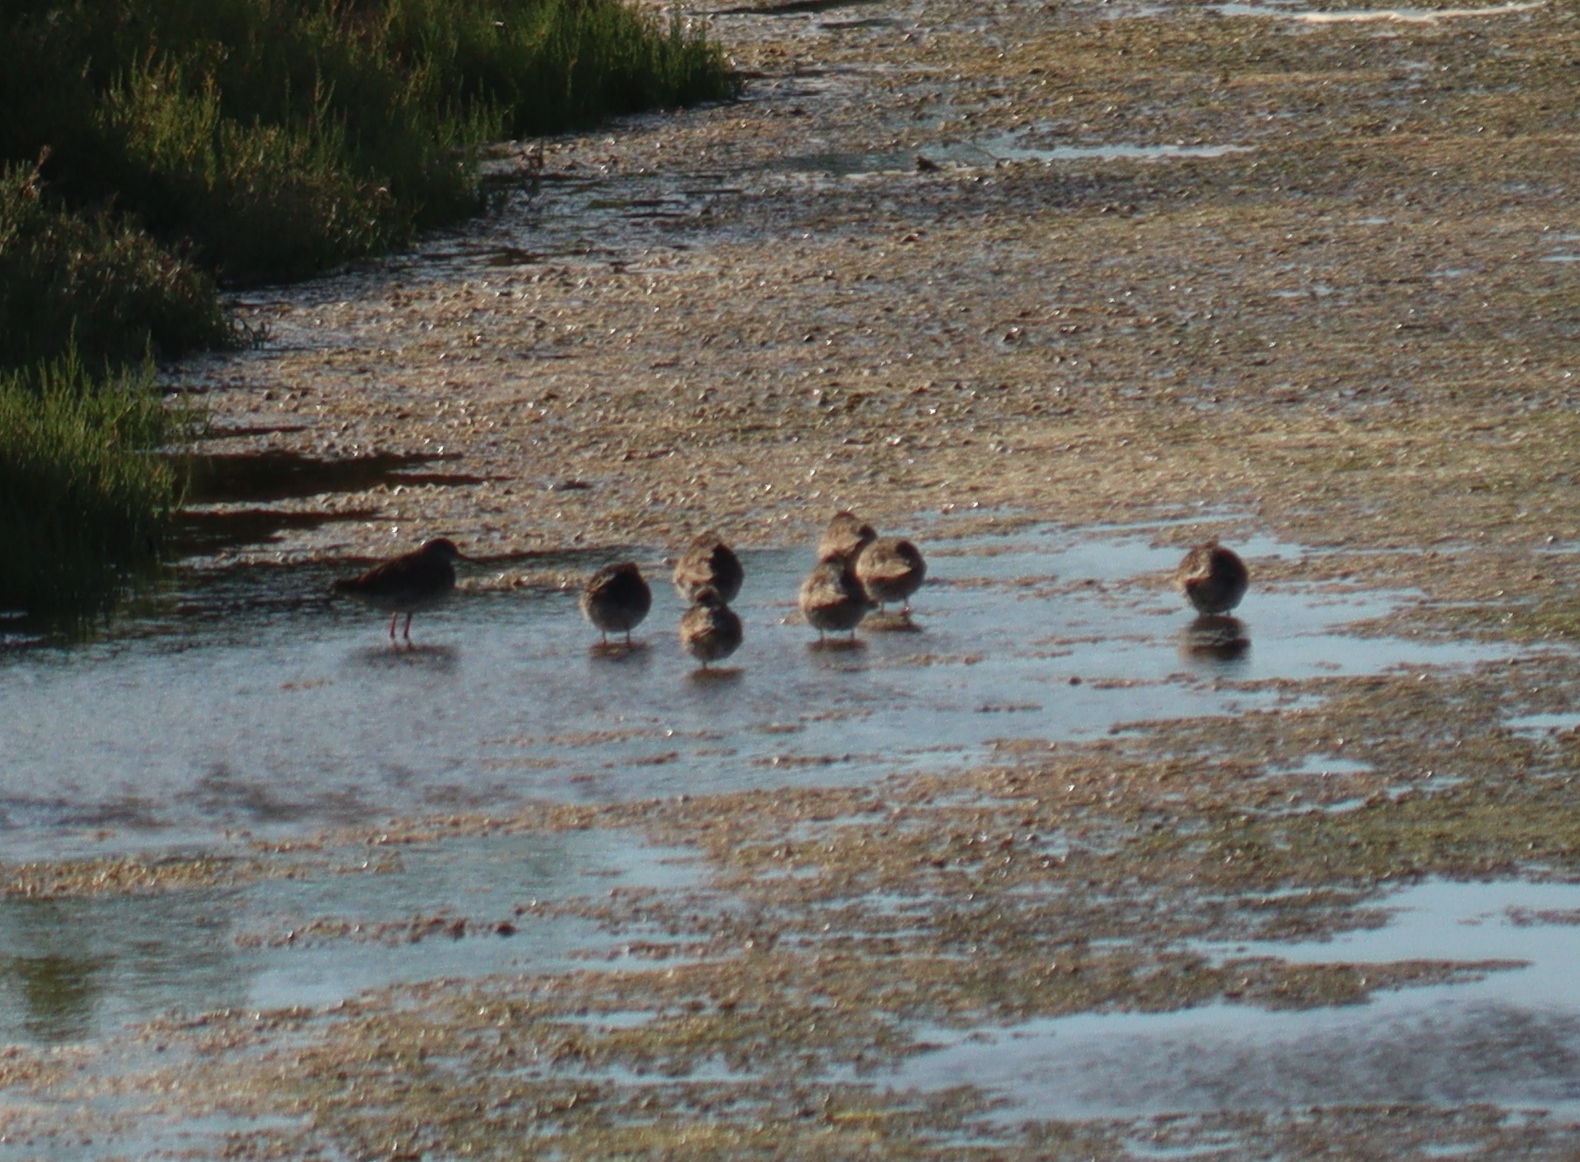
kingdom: Animalia
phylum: Chordata
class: Aves
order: Charadriiformes
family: Scolopacidae
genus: Tringa
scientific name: Tringa totanus
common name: Common redshank
